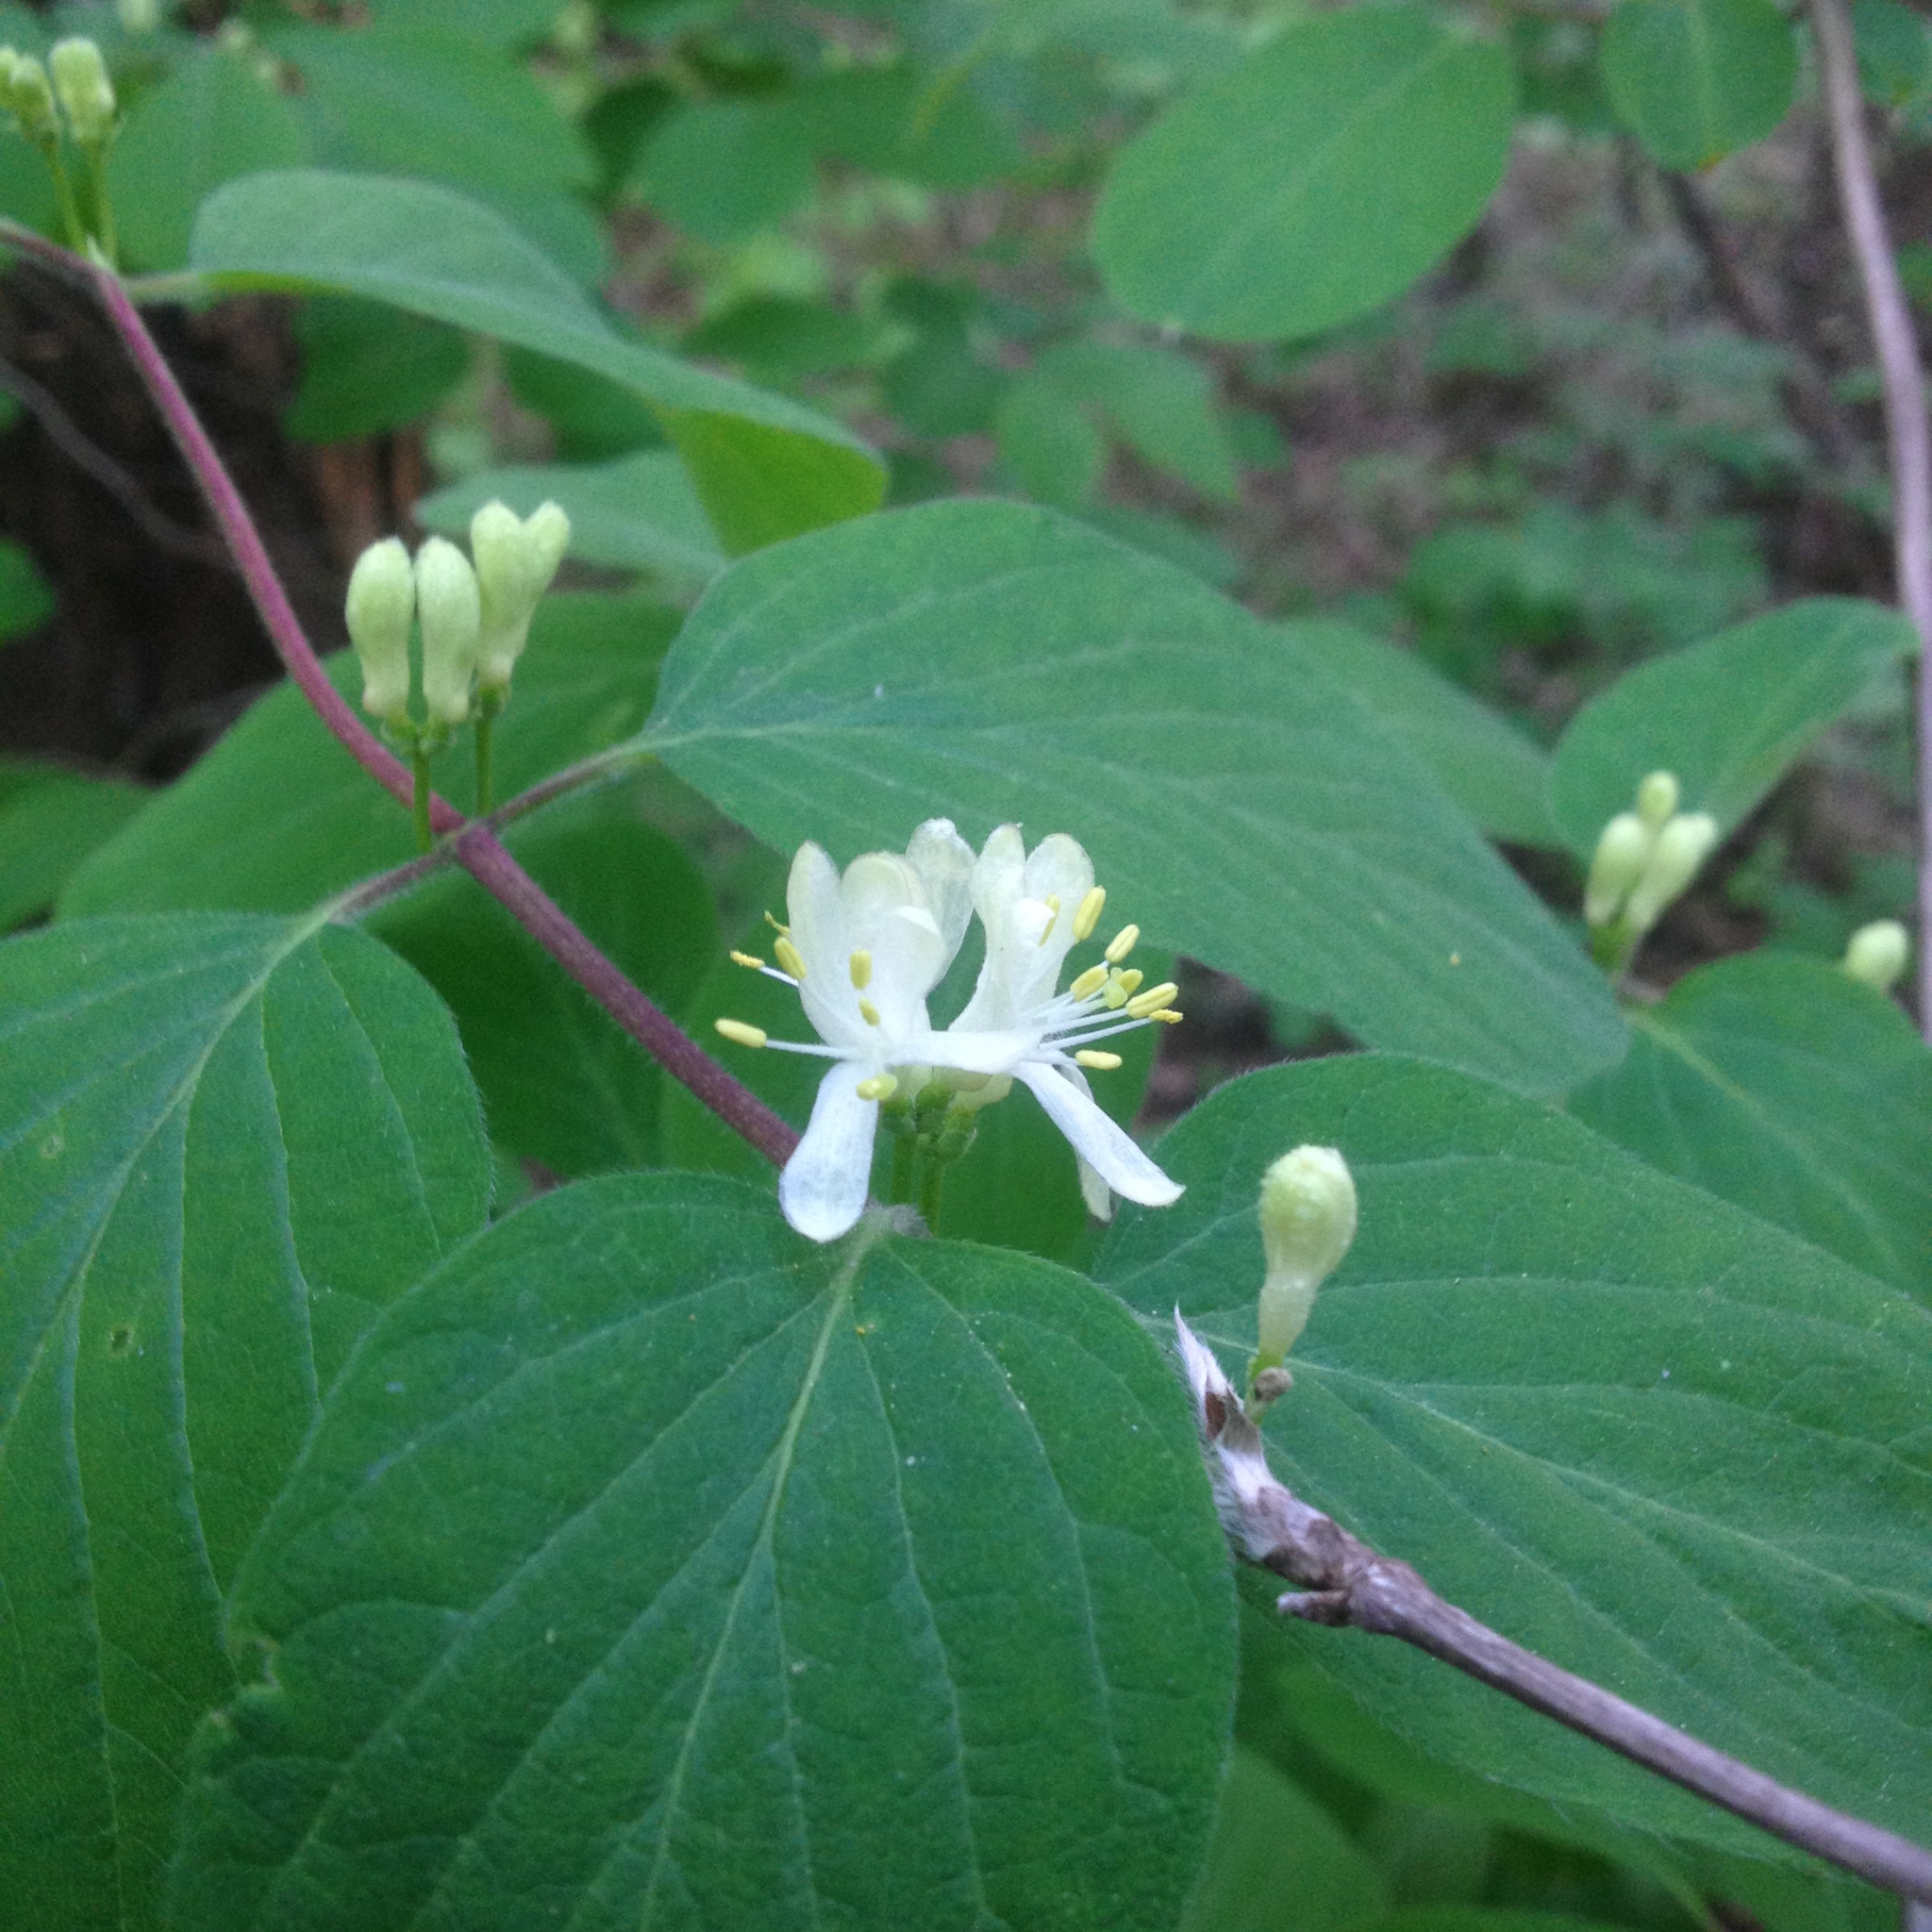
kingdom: Plantae
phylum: Tracheophyta
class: Magnoliopsida
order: Dipsacales
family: Caprifoliaceae
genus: Lonicera
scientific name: Lonicera xylosteum
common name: Fly honeysuckle
